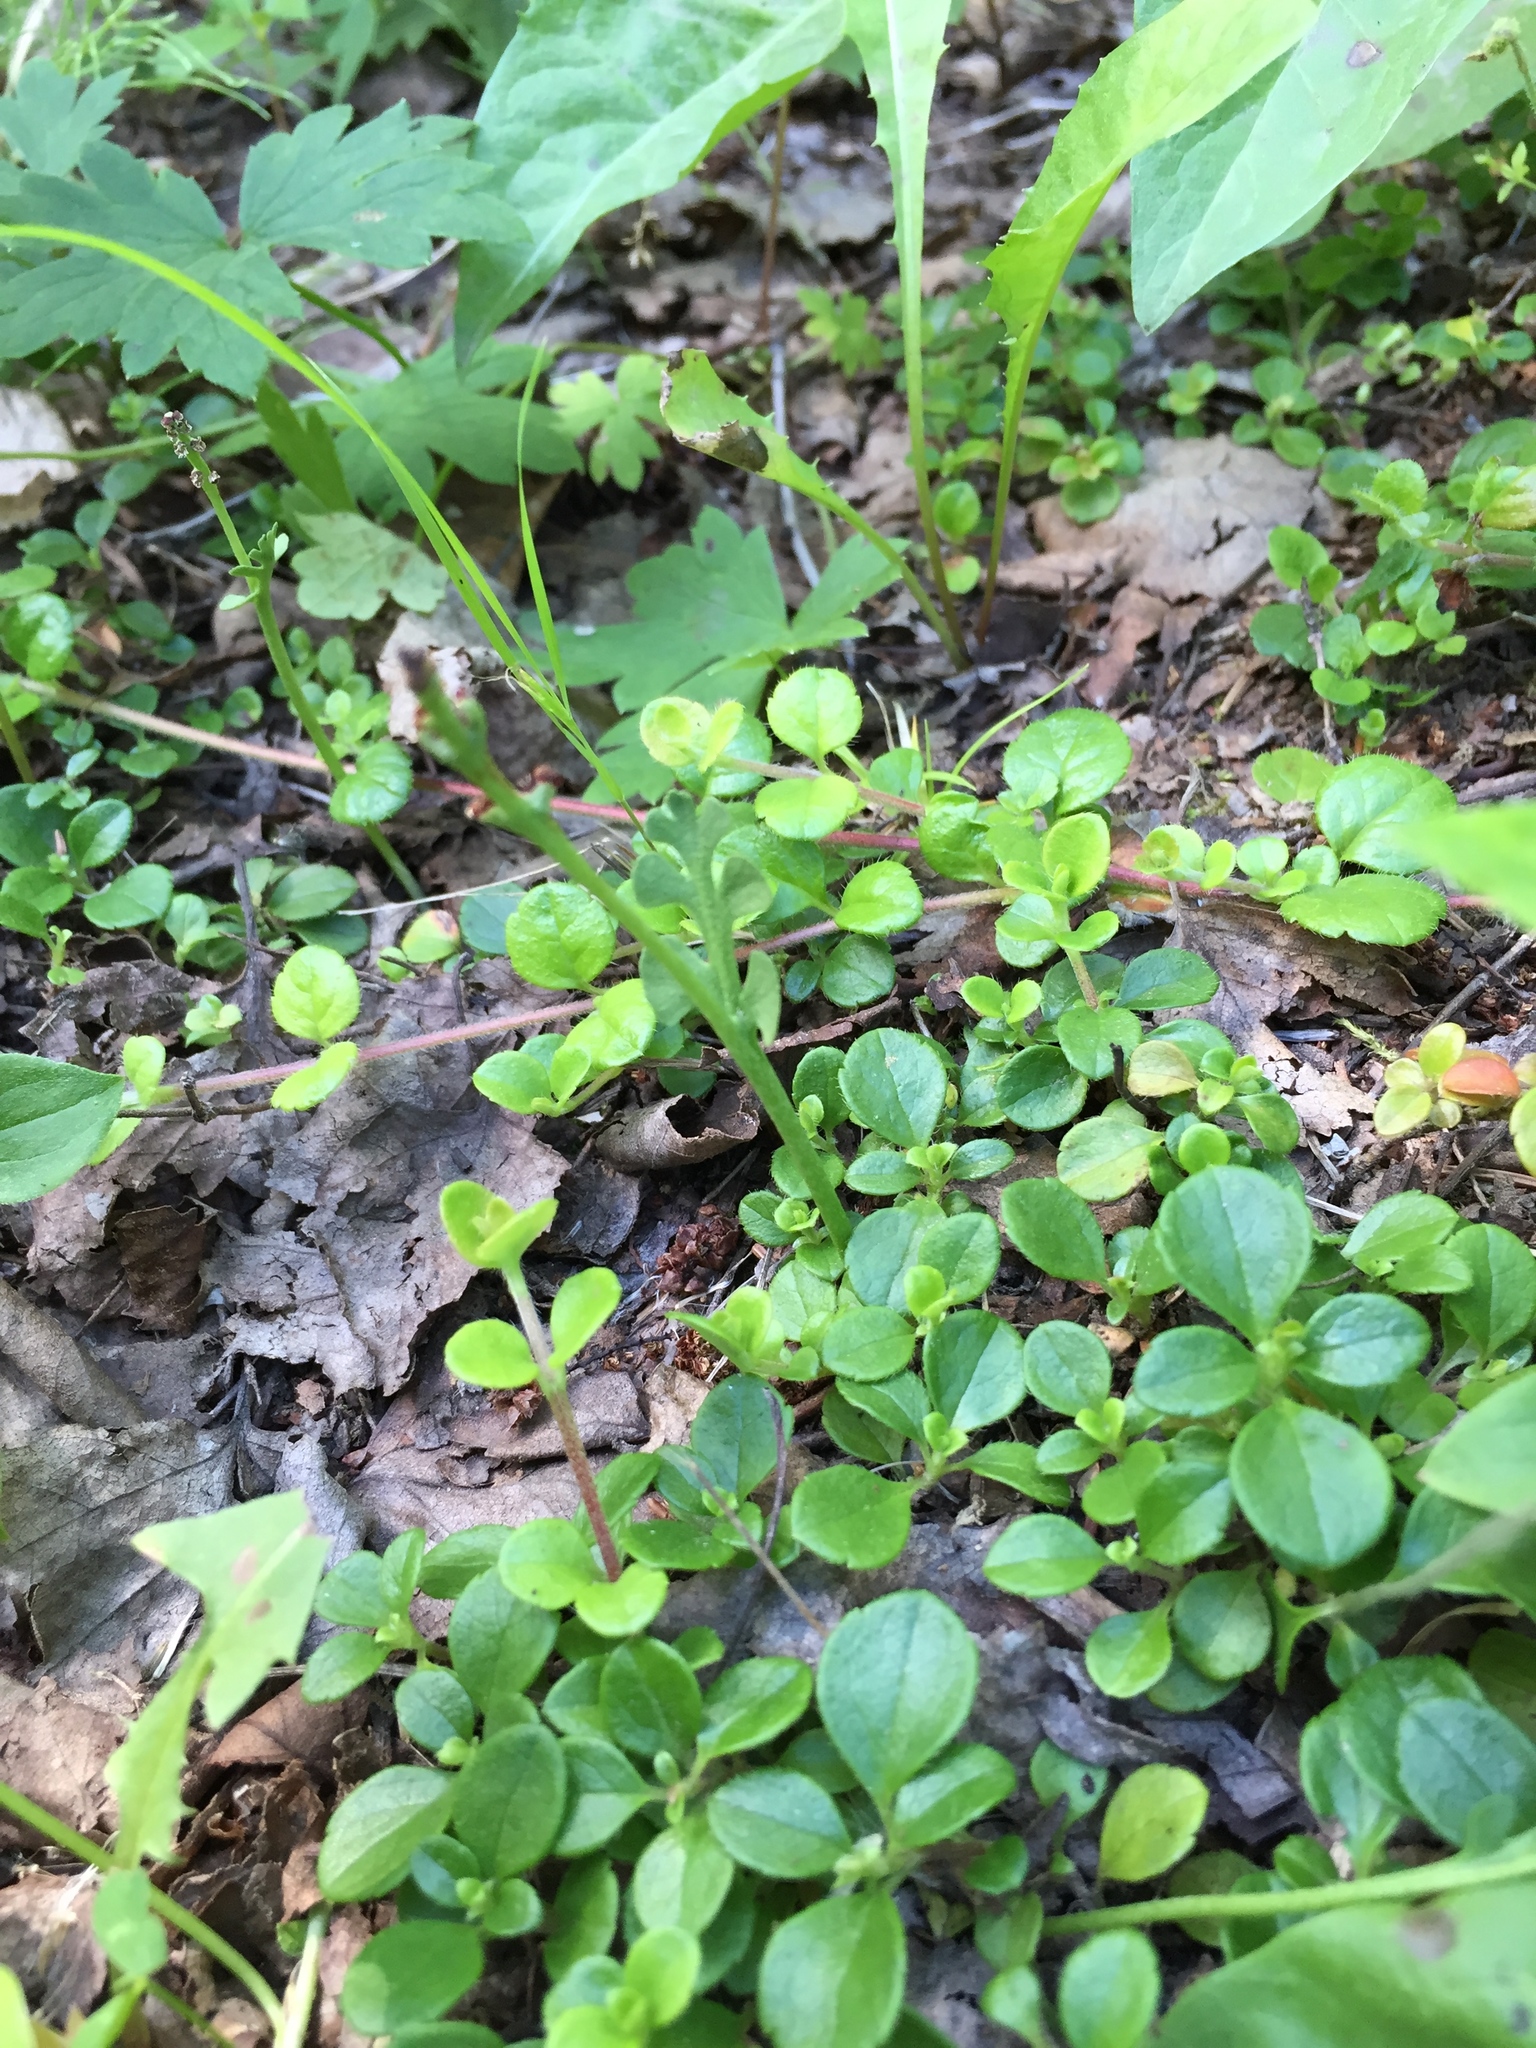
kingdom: Plantae
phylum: Tracheophyta
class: Polypodiopsida
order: Ophioglossales
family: Ophioglossaceae
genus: Botrychium
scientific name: Botrychium minganense
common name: Mingan grapefern
